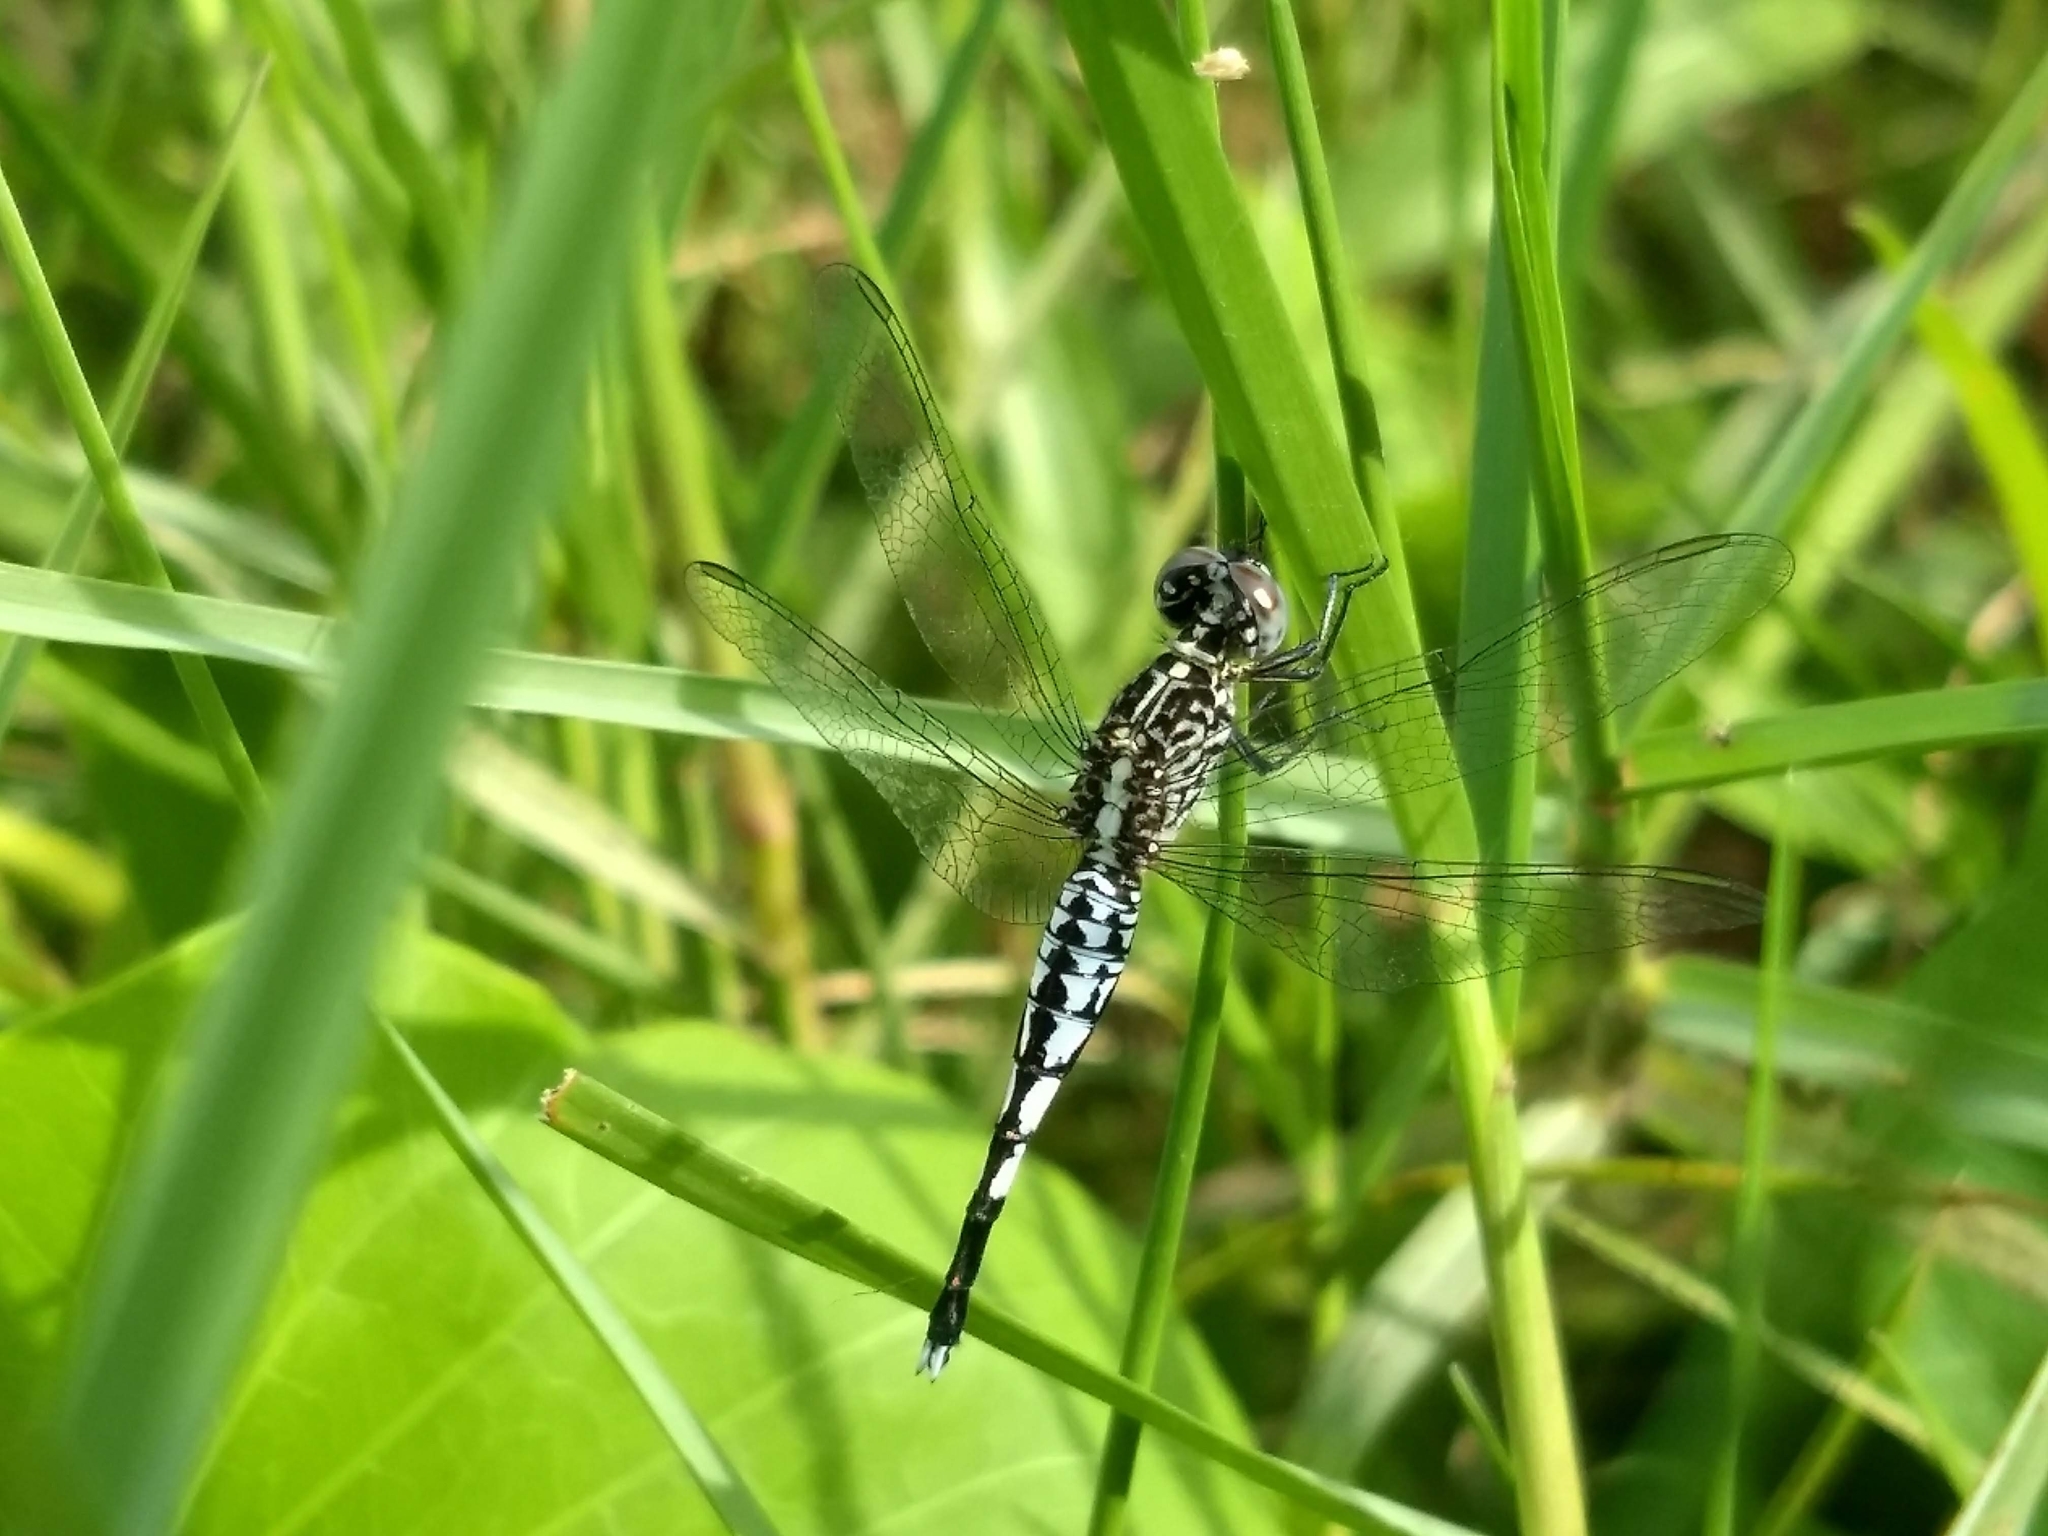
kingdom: Animalia
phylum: Arthropoda
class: Insecta
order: Odonata
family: Libellulidae
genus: Acisoma
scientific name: Acisoma panorpoides
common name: Asian pintail
